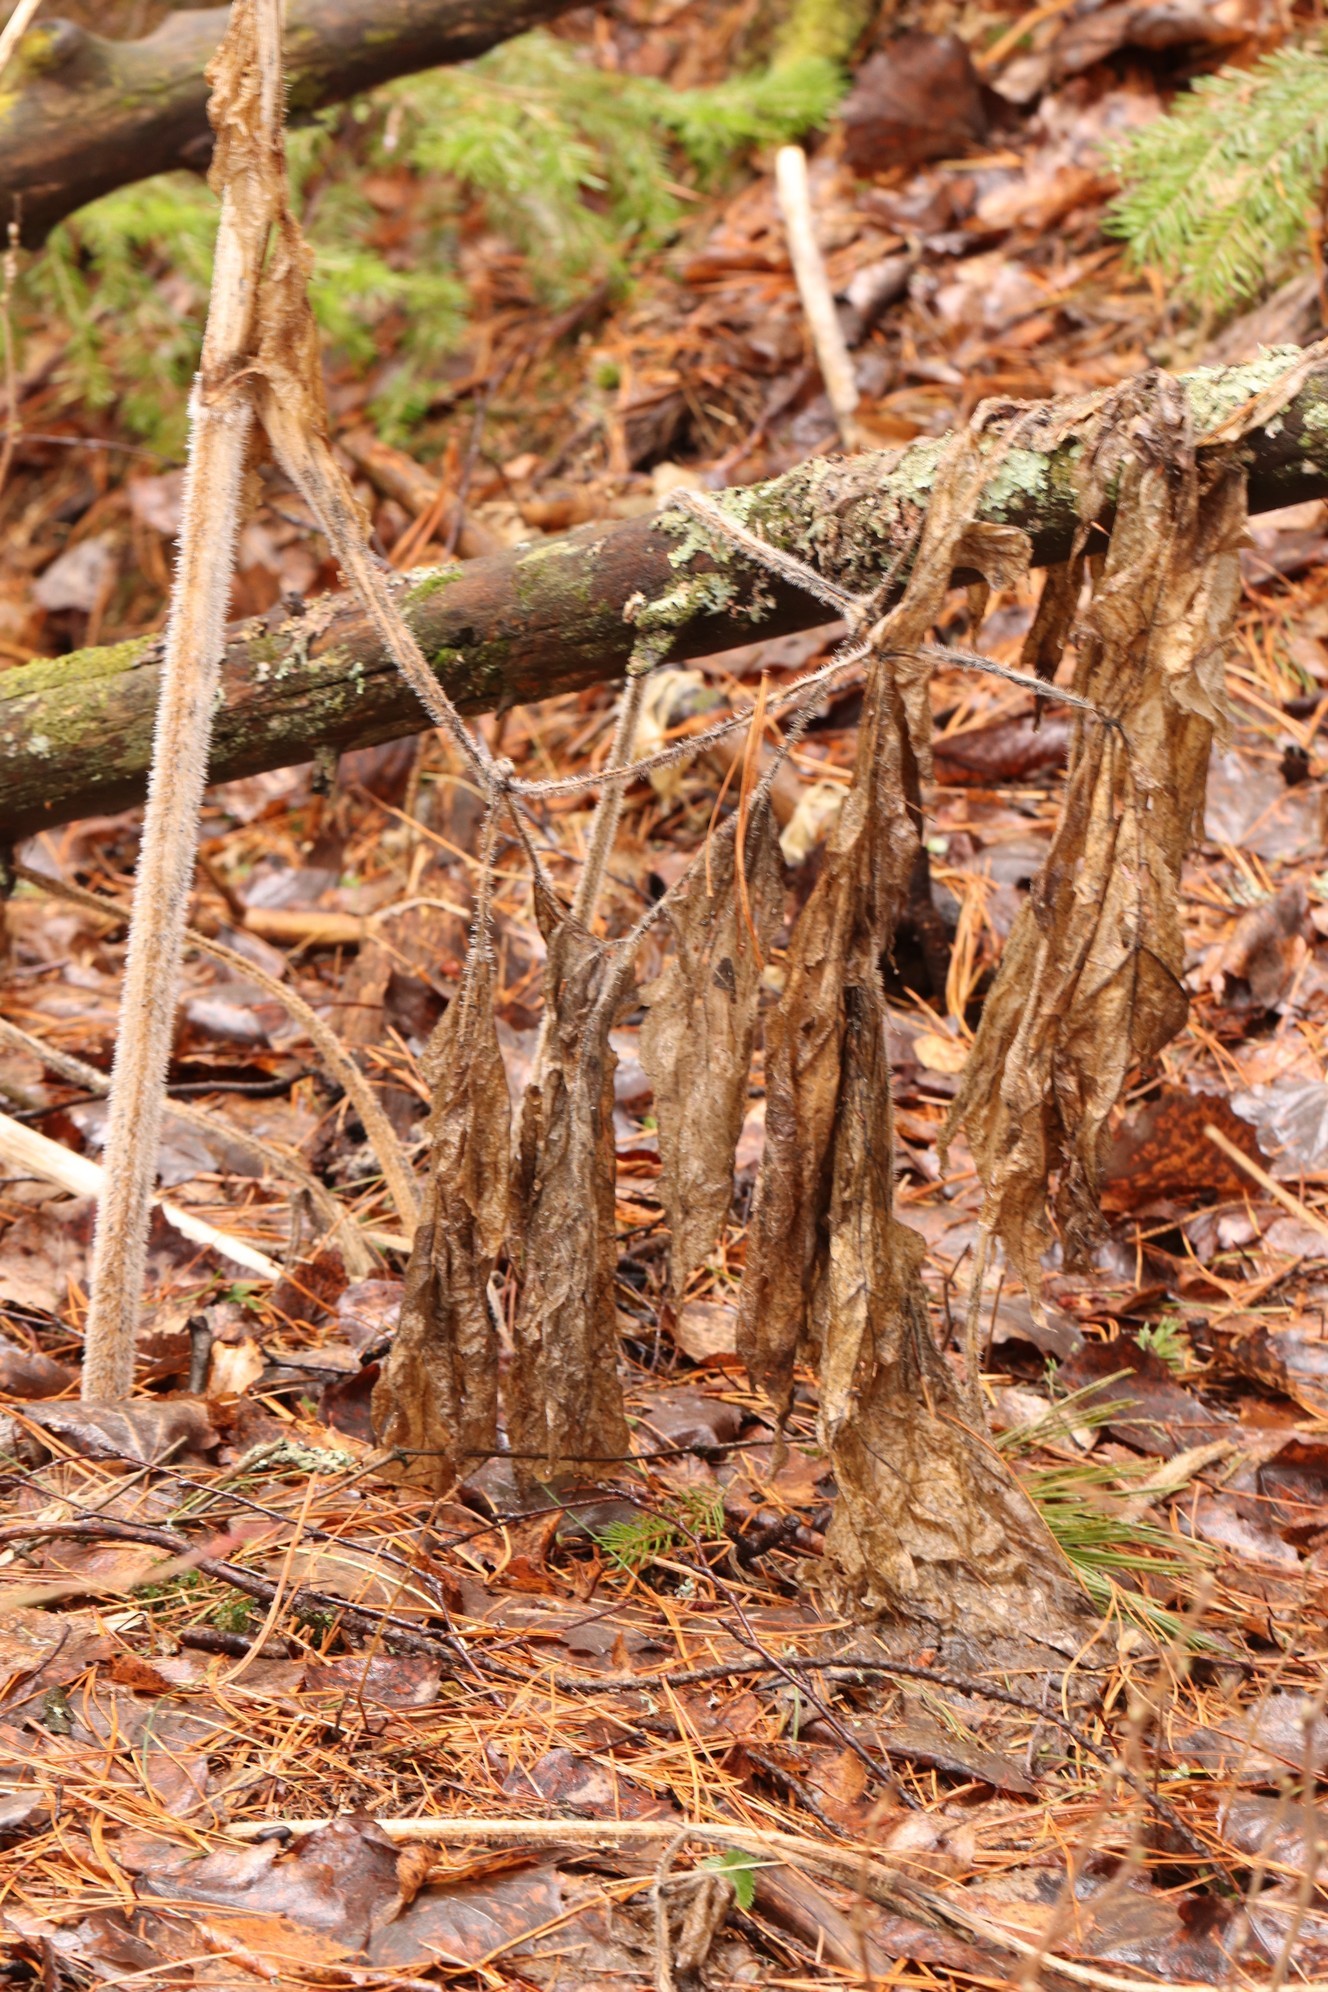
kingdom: Plantae
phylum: Tracheophyta
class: Magnoliopsida
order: Apiales
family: Apiaceae
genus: Heracleum
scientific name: Heracleum sphondylium
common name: Hogweed
